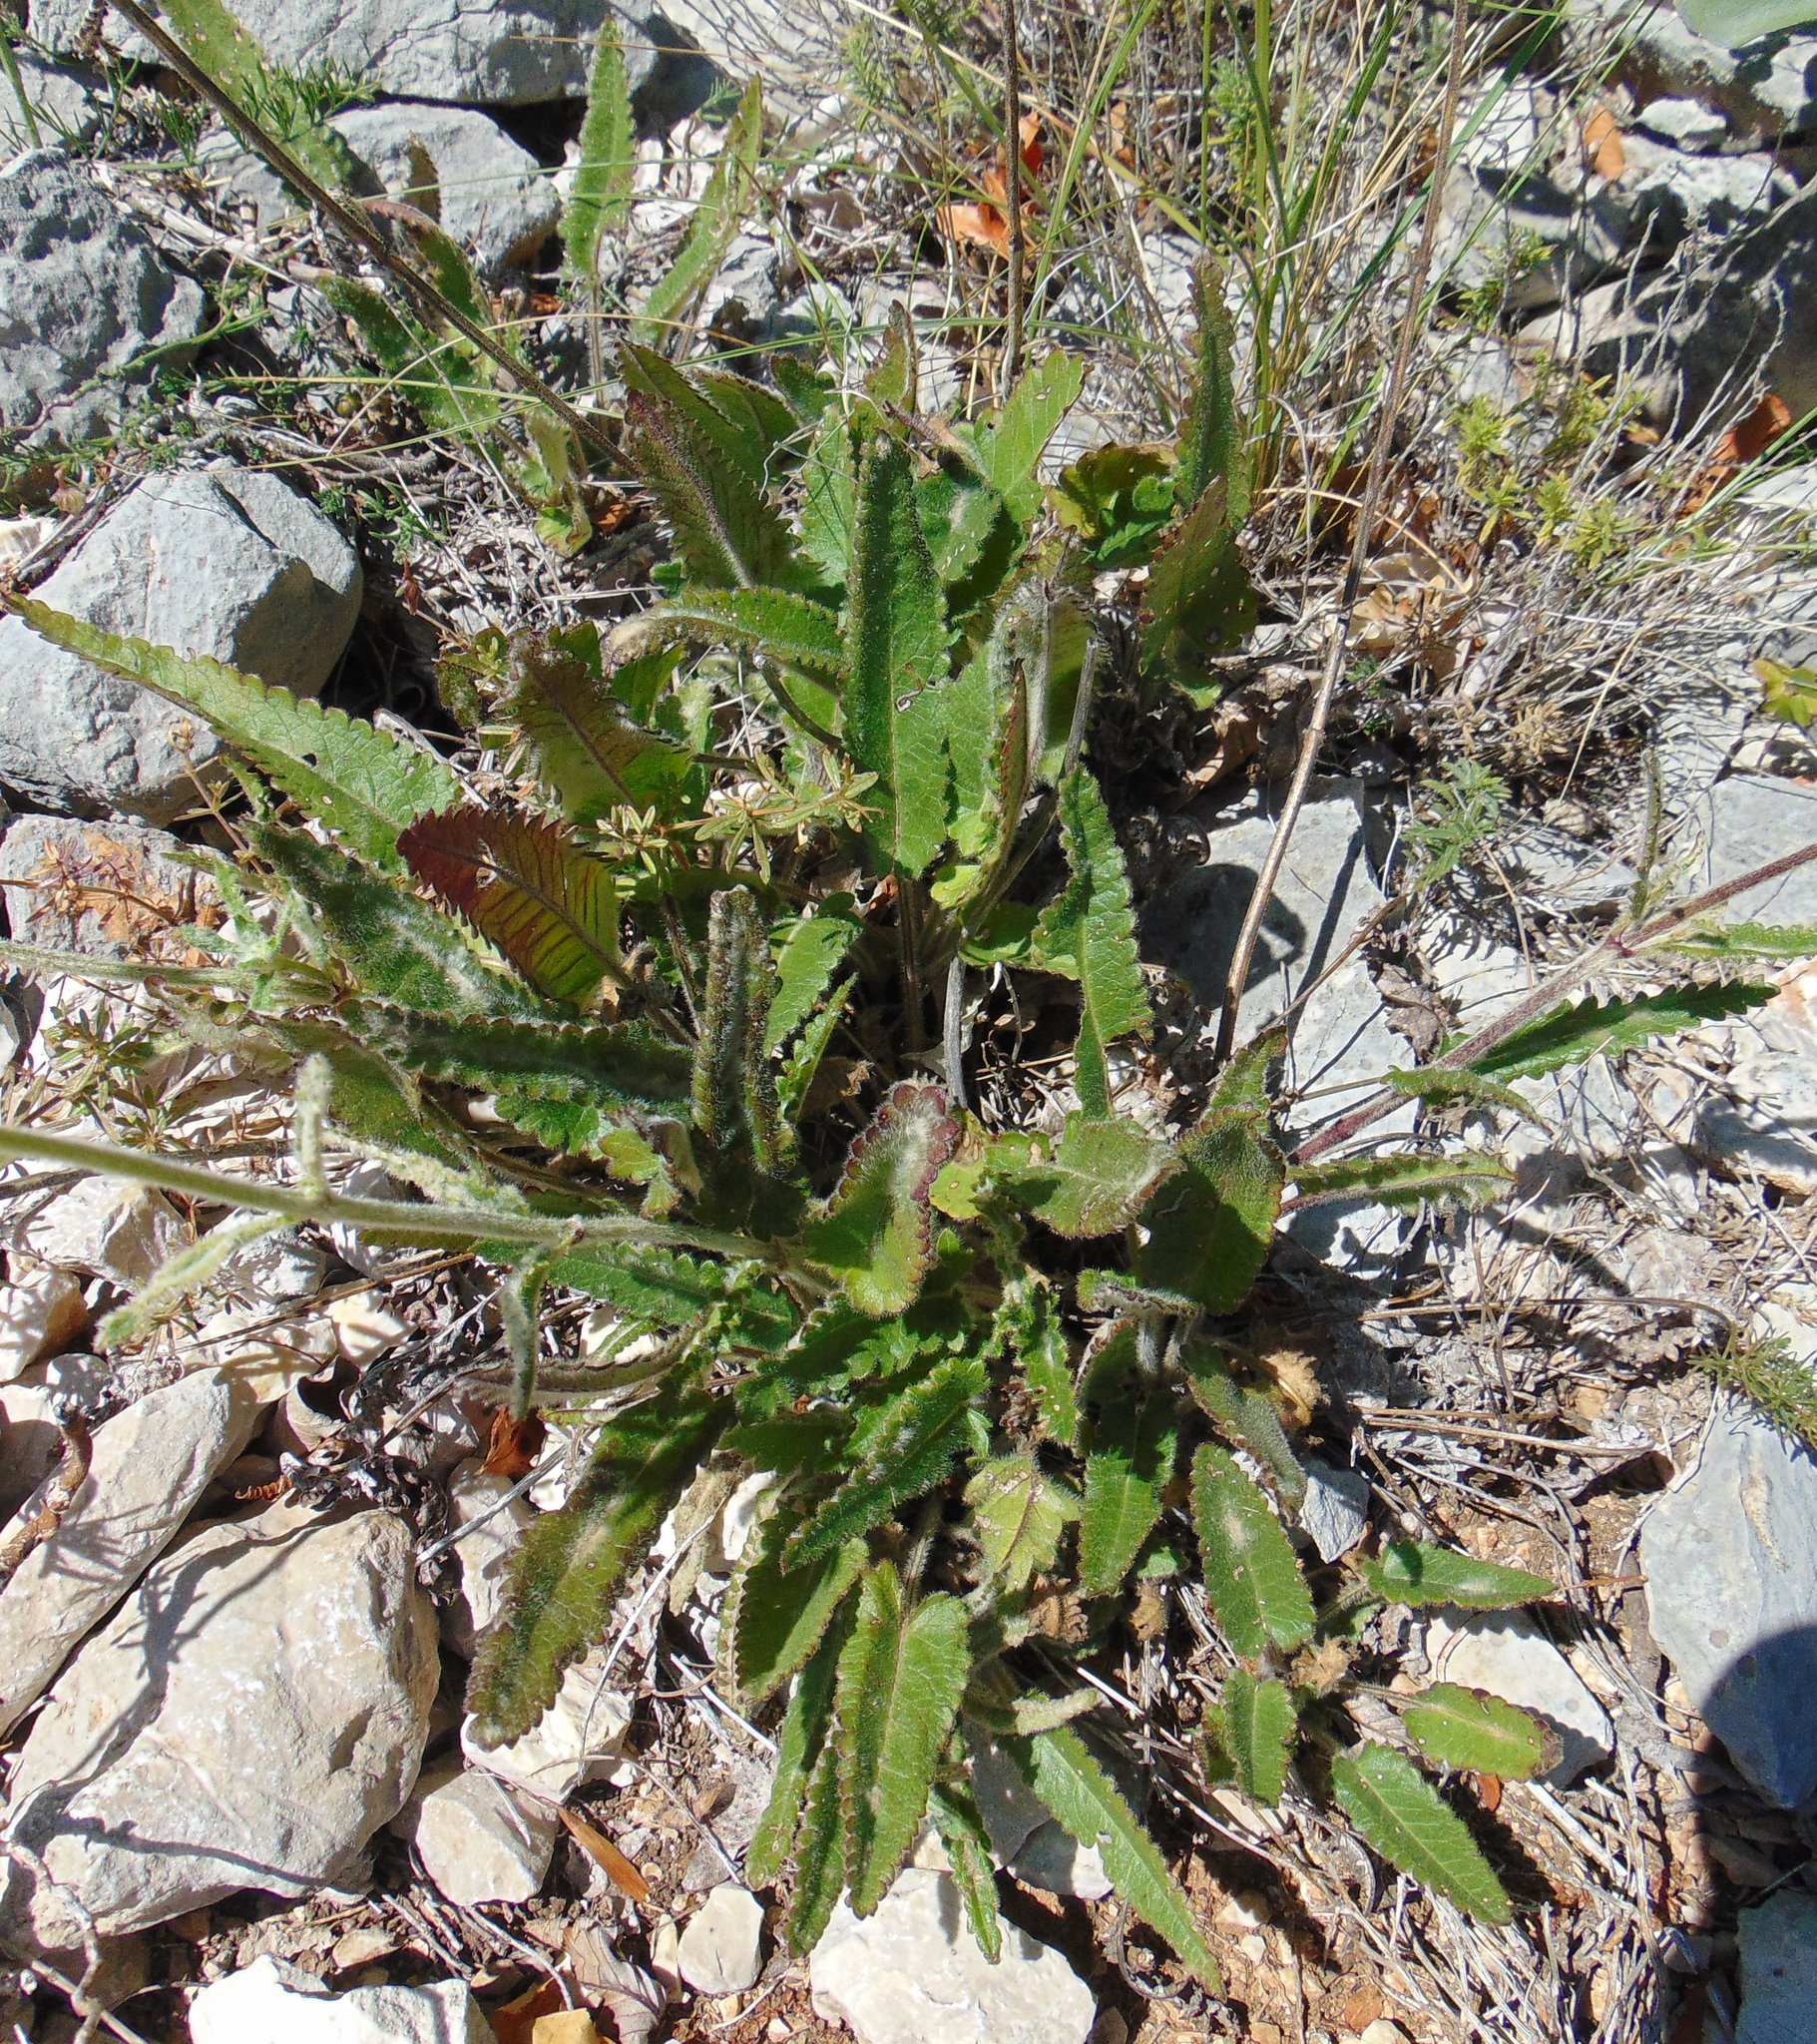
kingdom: Plantae
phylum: Tracheophyta
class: Magnoliopsida
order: Lamiales
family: Lamiaceae
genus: Betonica
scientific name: Betonica officinalis
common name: Bishop's-wort
